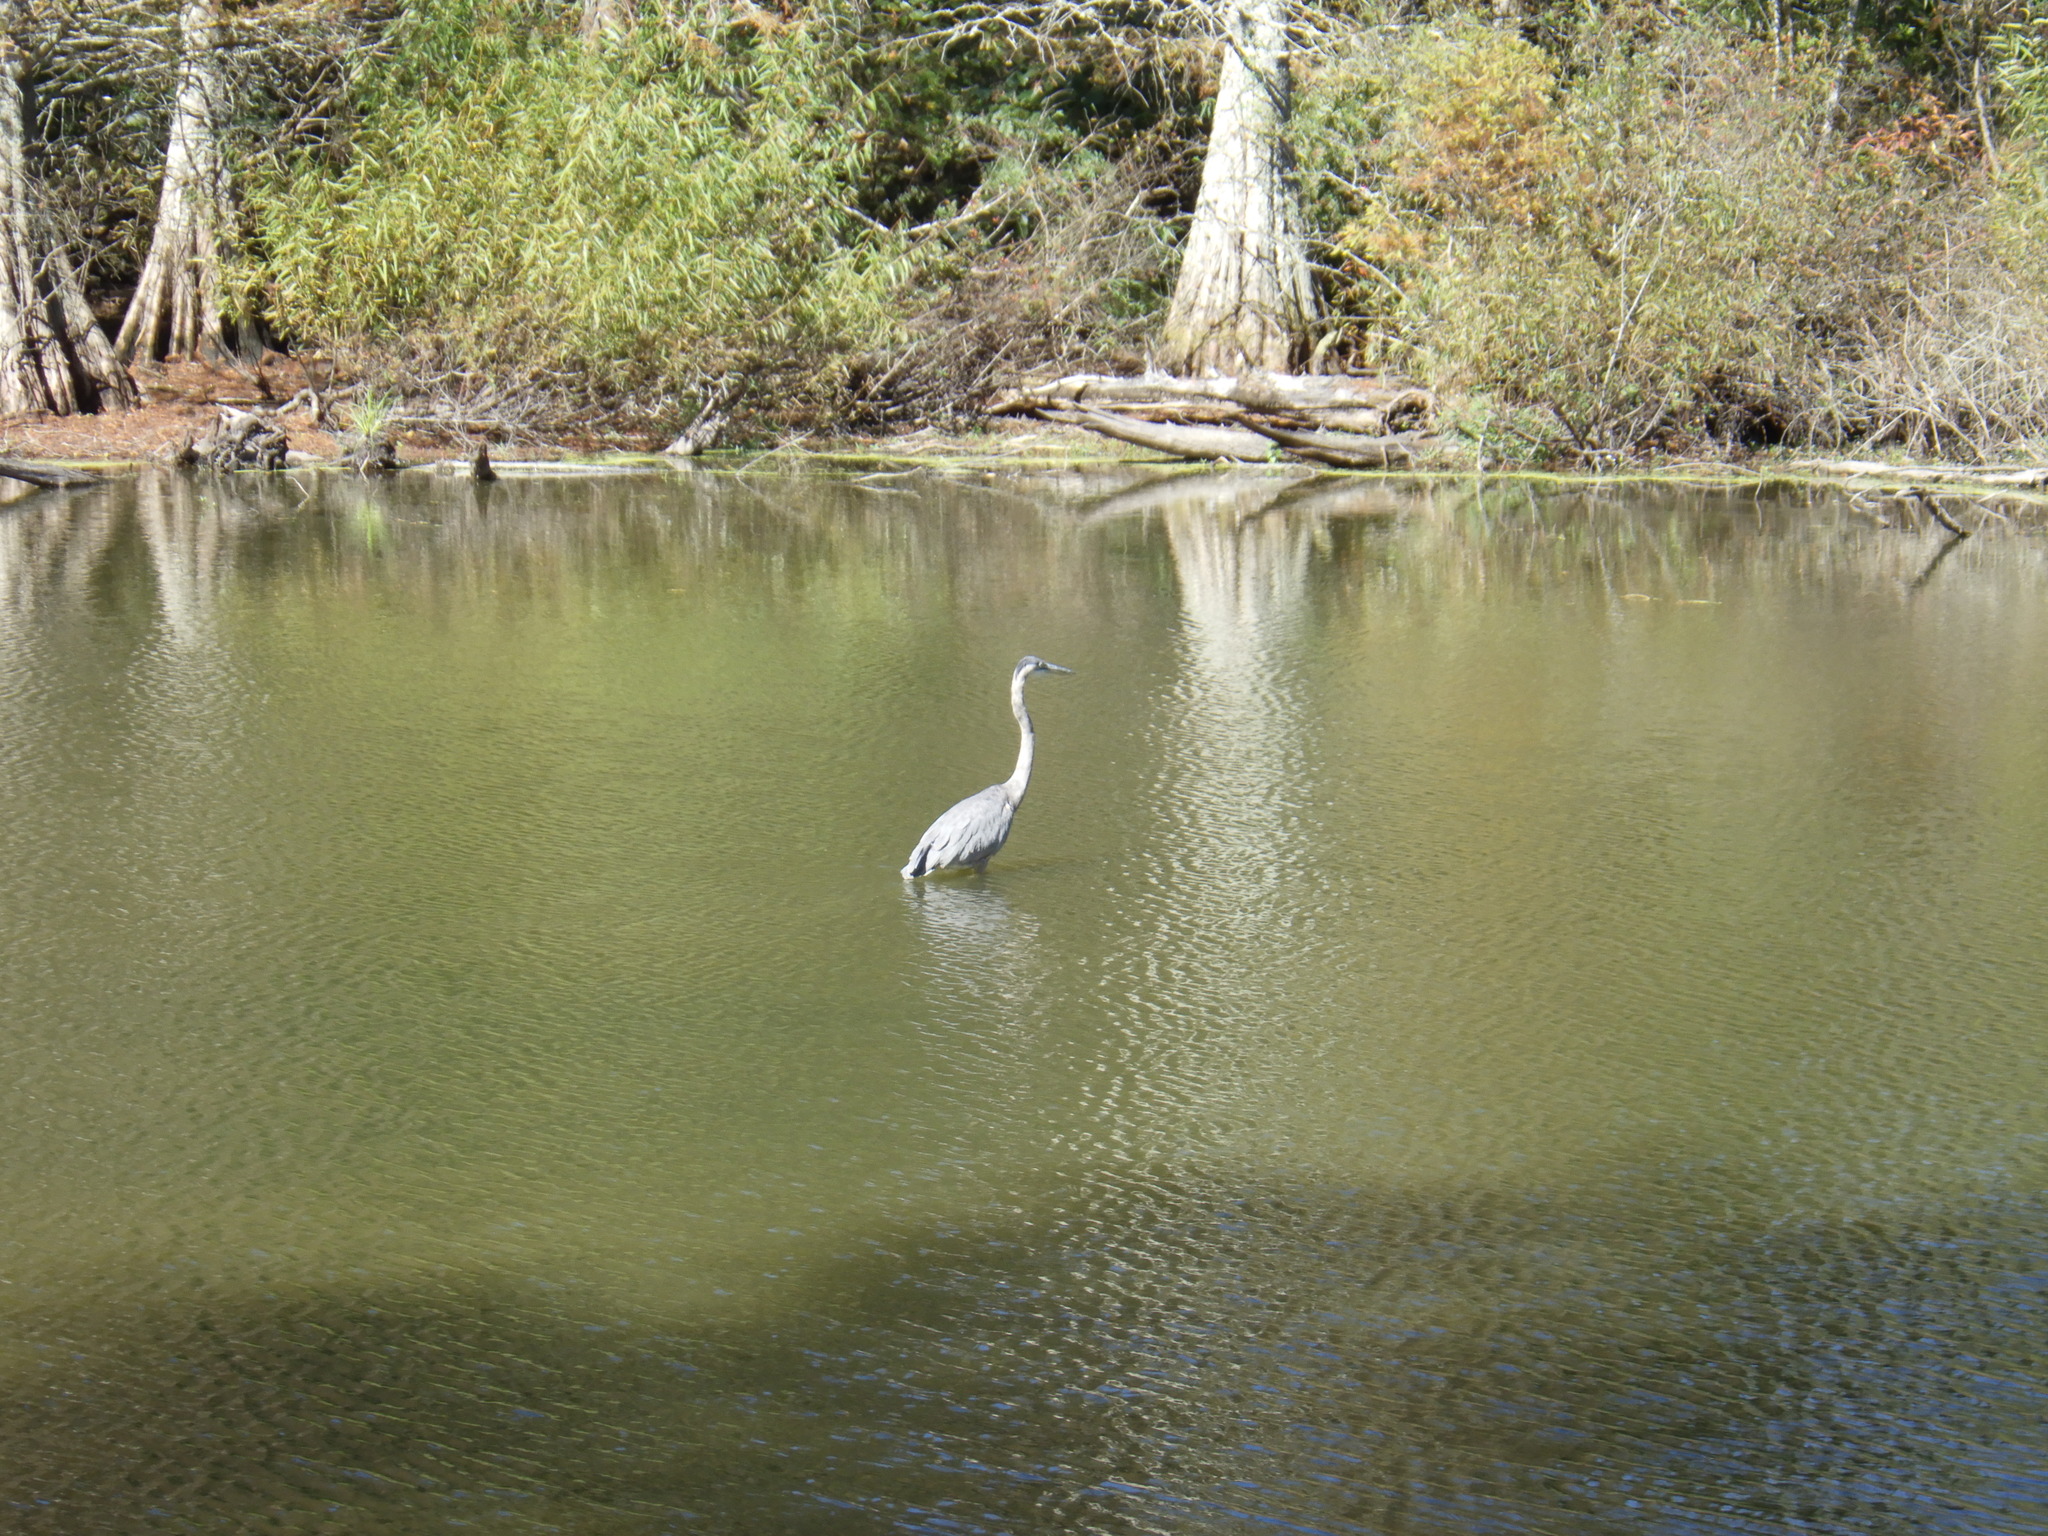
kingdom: Animalia
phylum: Chordata
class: Aves
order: Pelecaniformes
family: Ardeidae
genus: Ardea
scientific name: Ardea herodias
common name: Great blue heron
